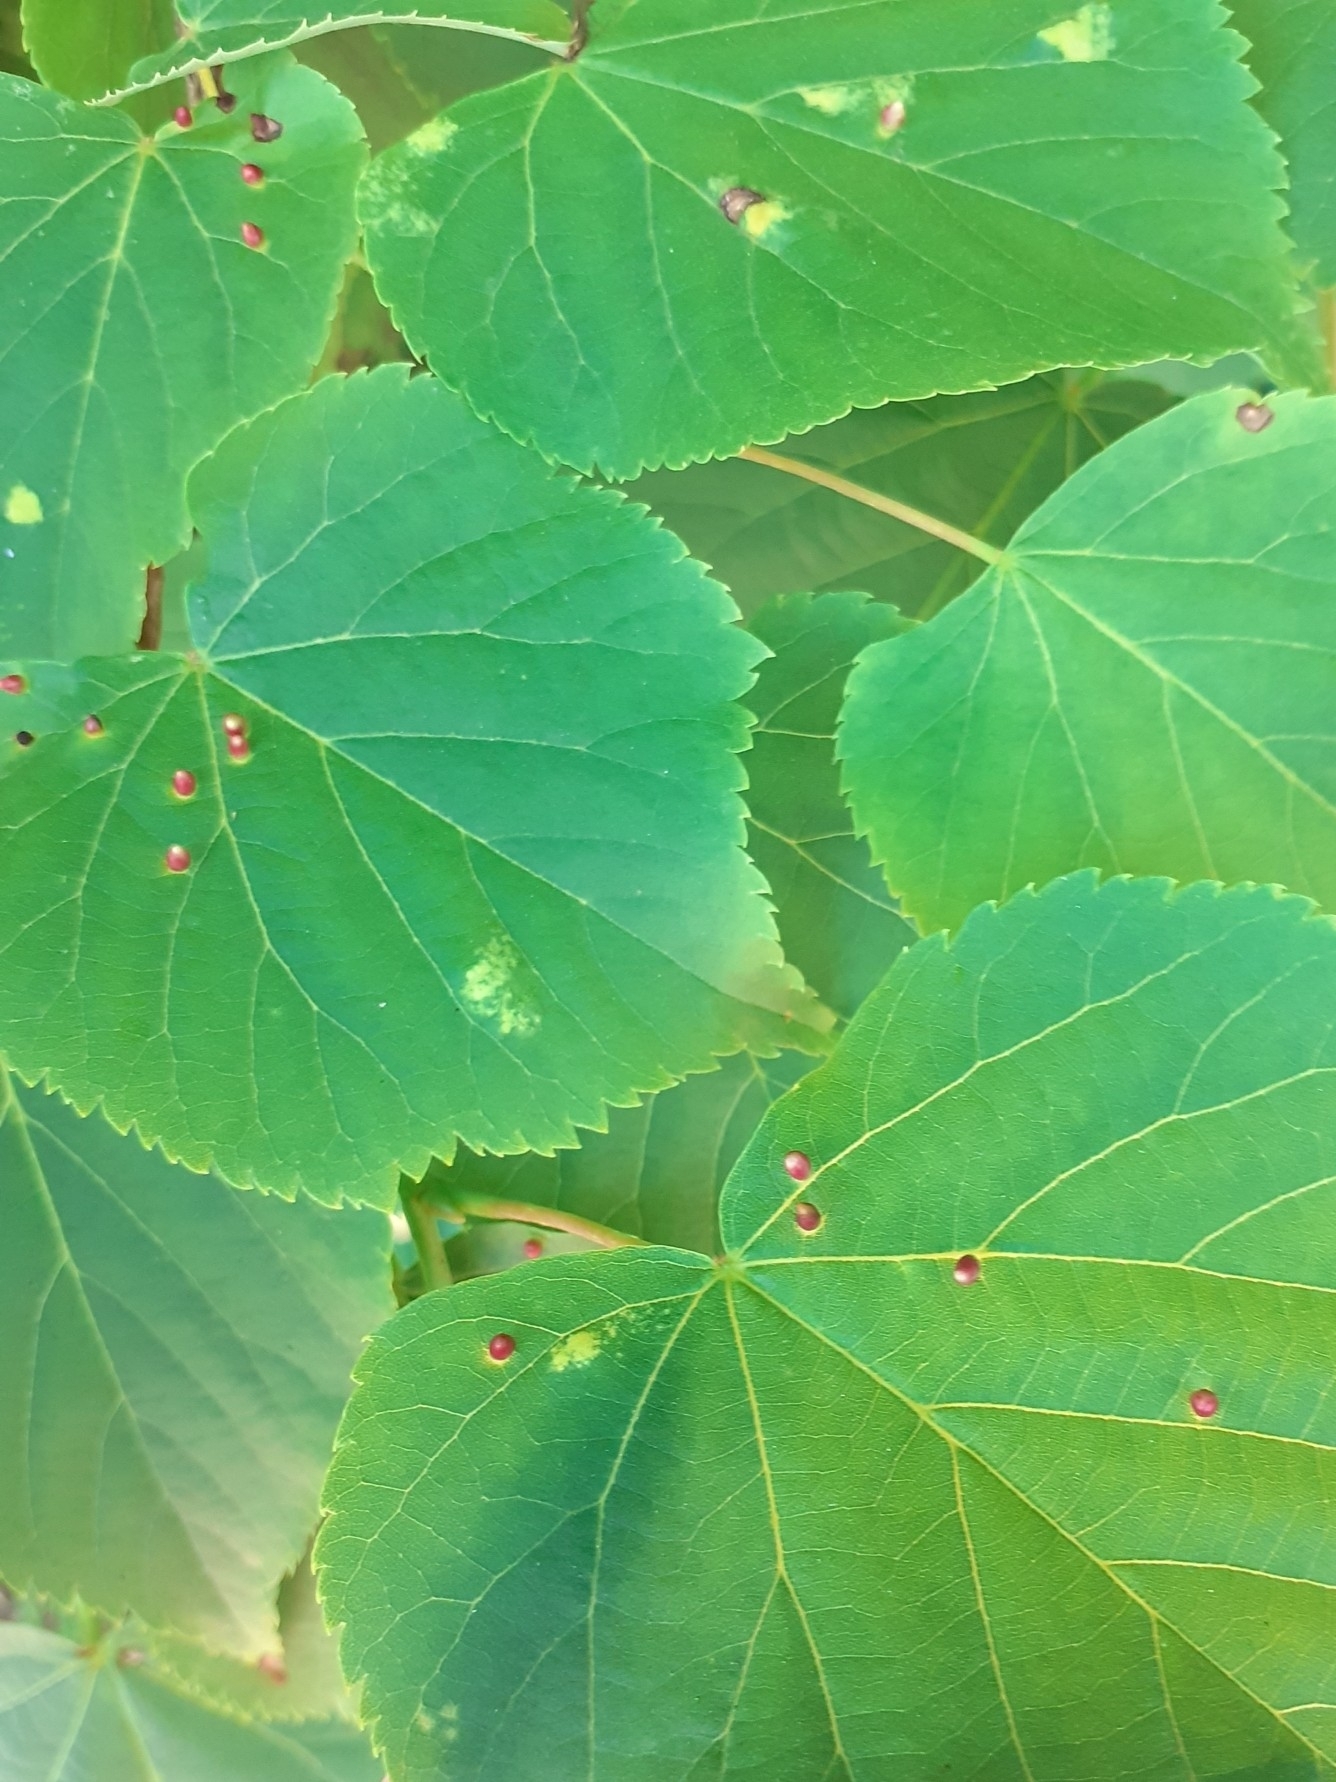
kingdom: Animalia
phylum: Arthropoda
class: Arachnida
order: Trombidiformes
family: Eriophyidae
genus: Eriophyes
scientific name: Eriophyes tiliae
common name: Red nail gall mite
